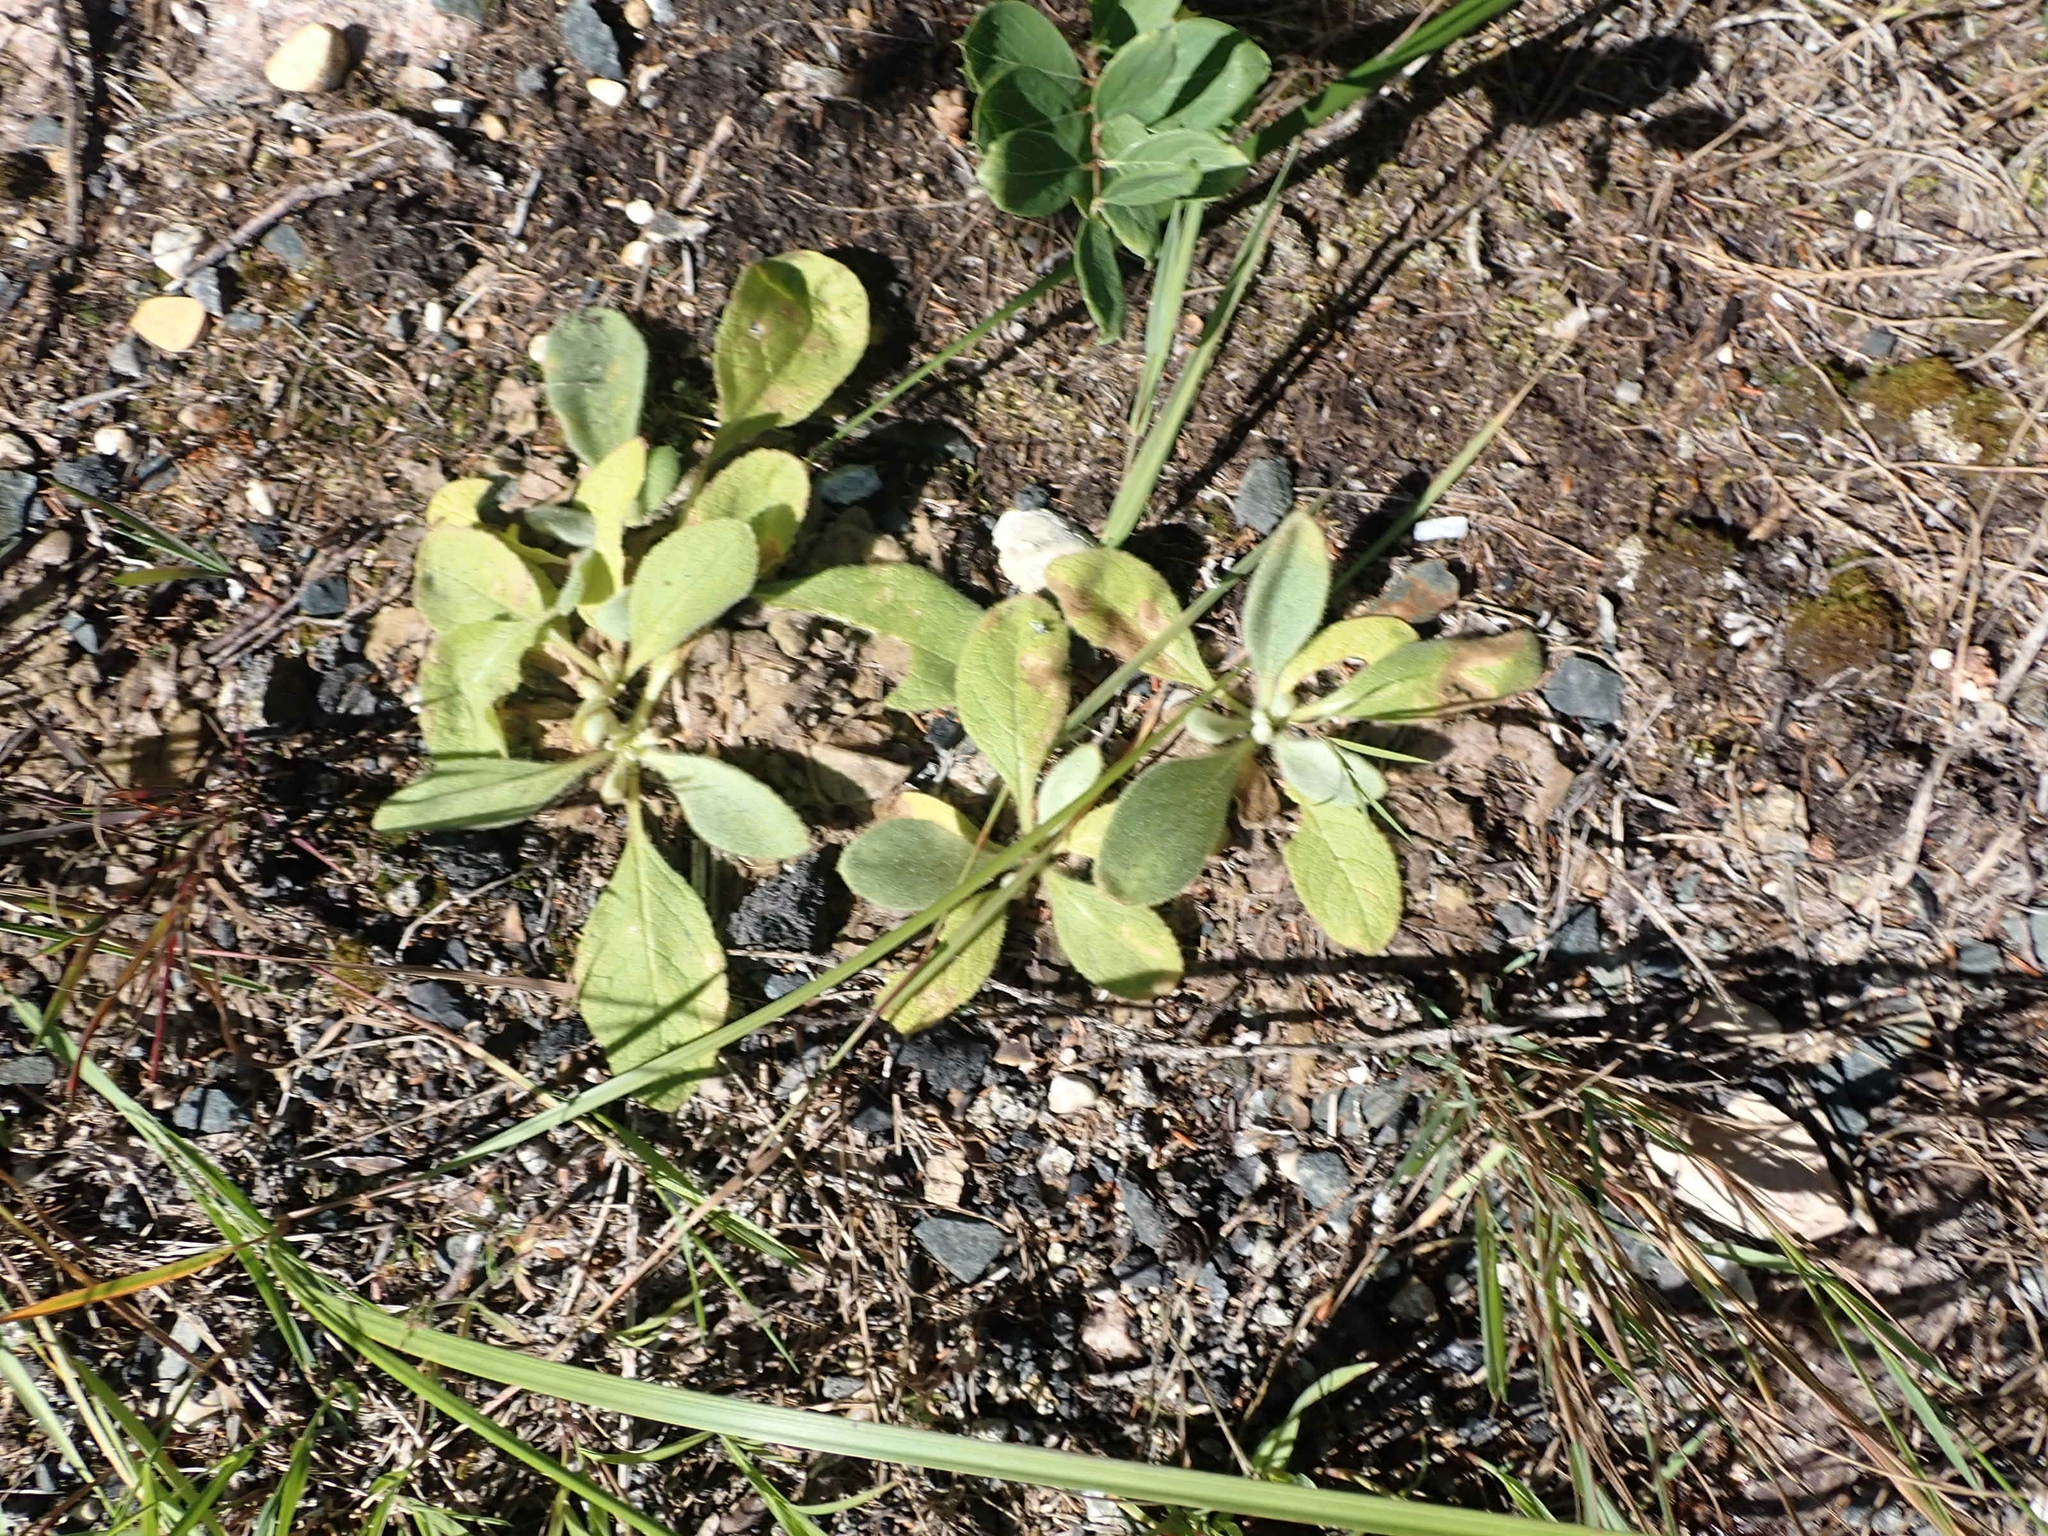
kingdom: Plantae
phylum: Tracheophyta
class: Magnoliopsida
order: Lamiales
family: Scrophulariaceae
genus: Verbascum
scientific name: Verbascum thapsus
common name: Common mullein
